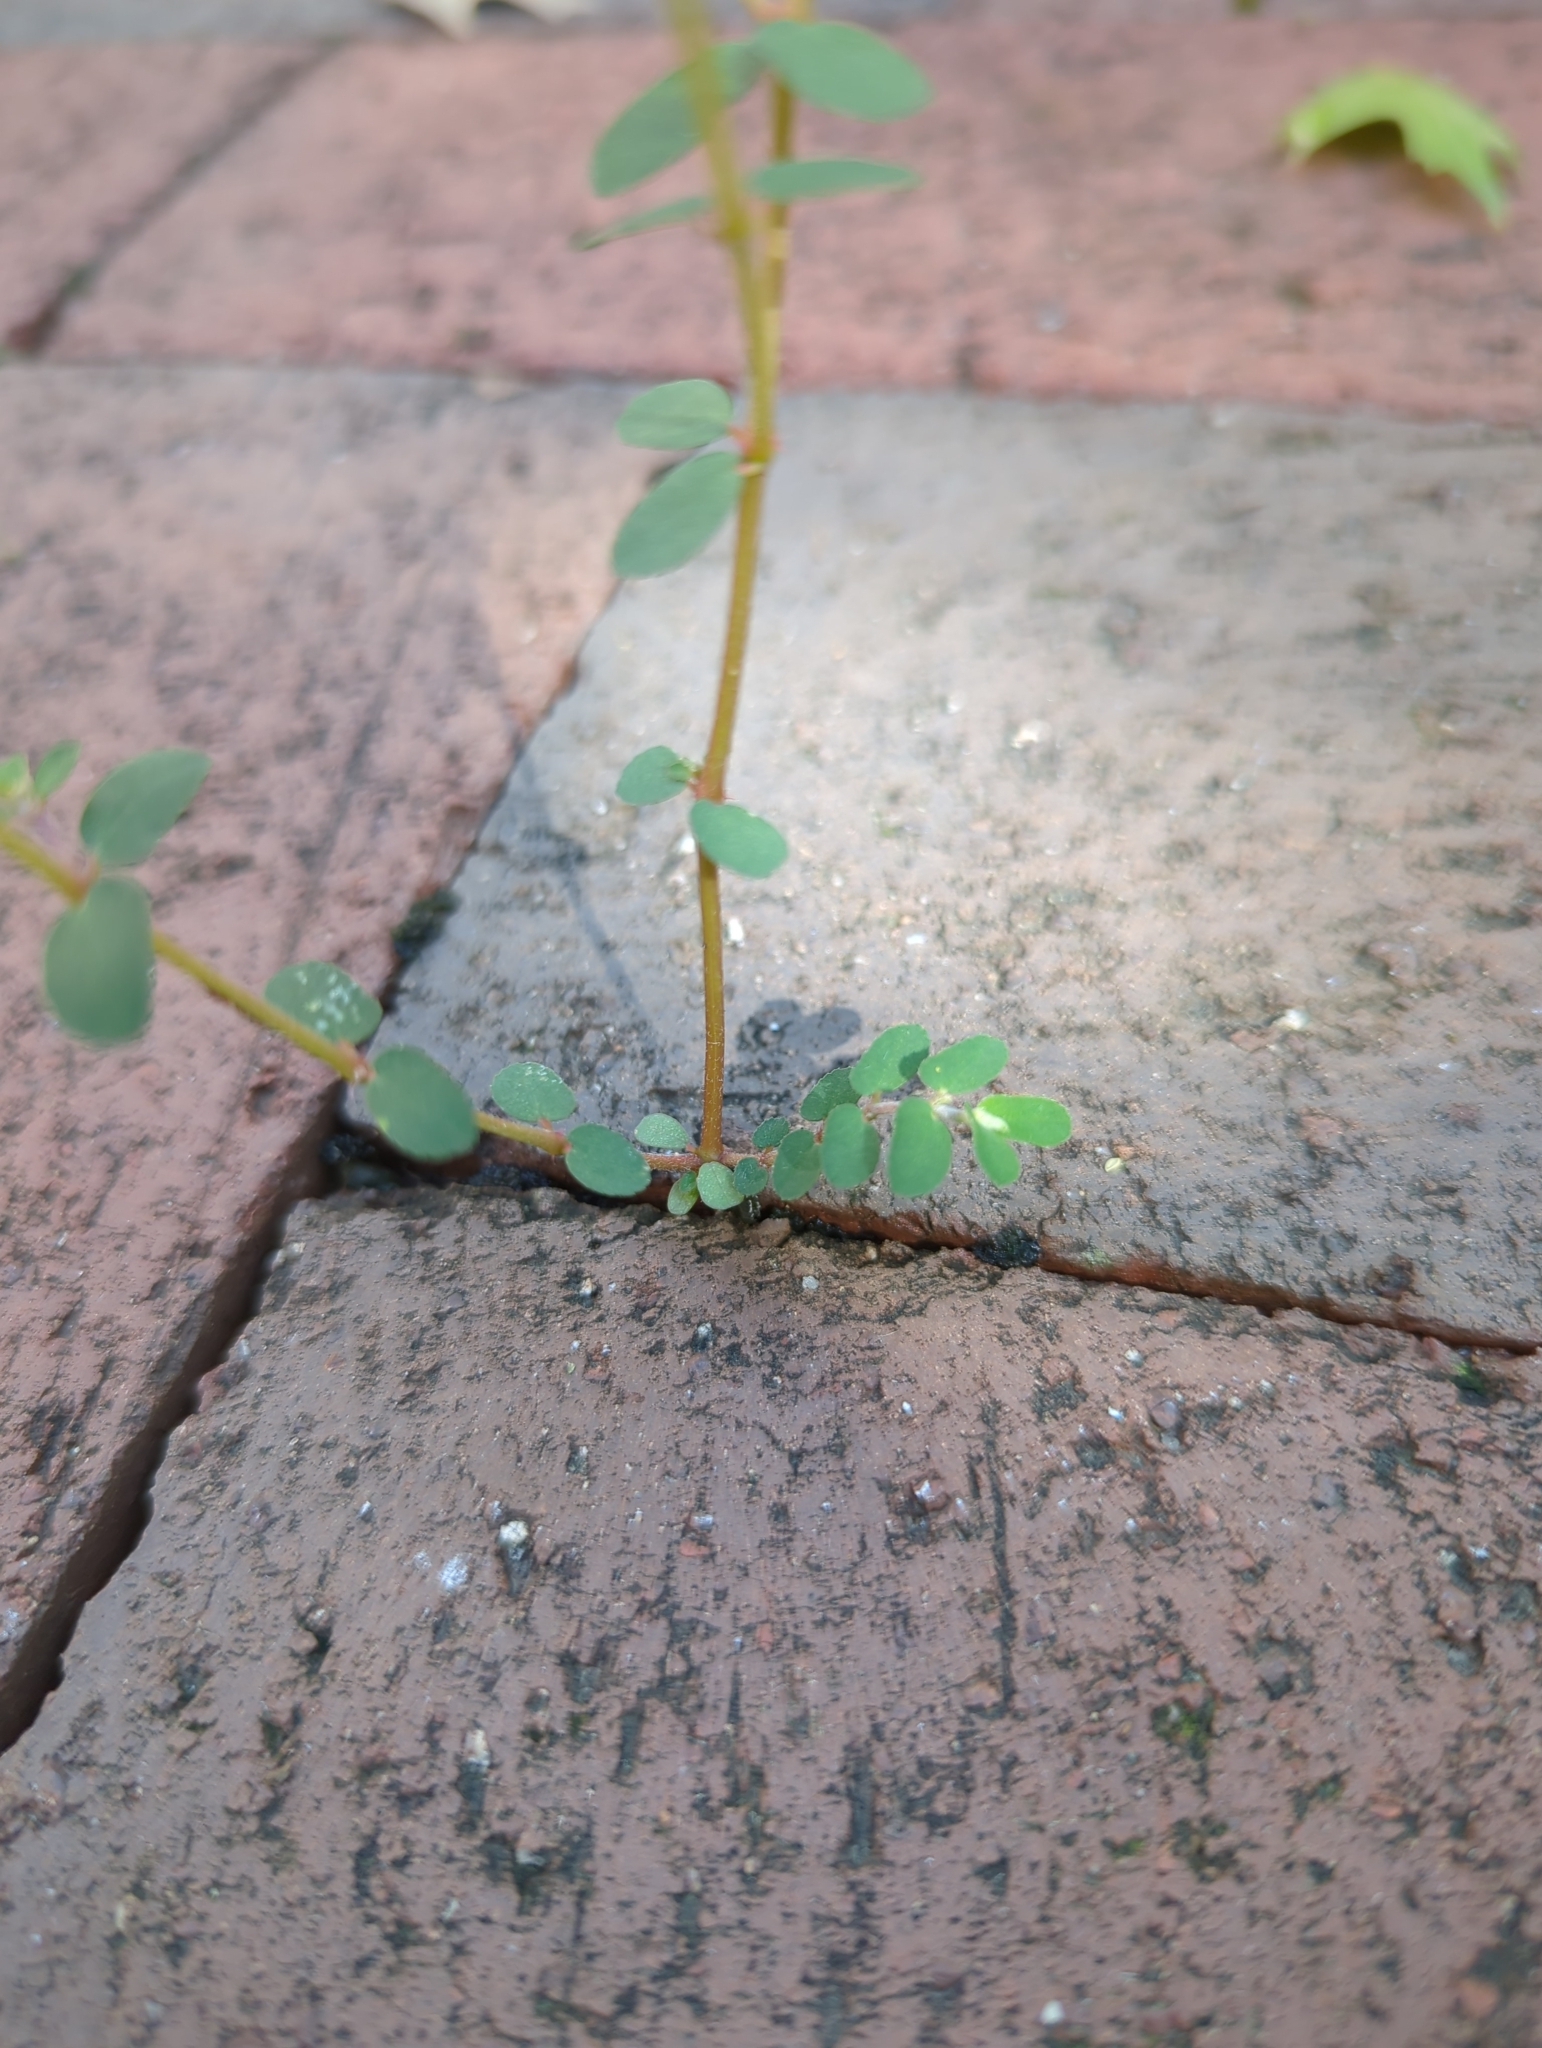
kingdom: Plantae
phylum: Tracheophyta
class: Magnoliopsida
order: Malpighiales
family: Euphorbiaceae
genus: Euphorbia
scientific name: Euphorbia maculata
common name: Spotted spurge
